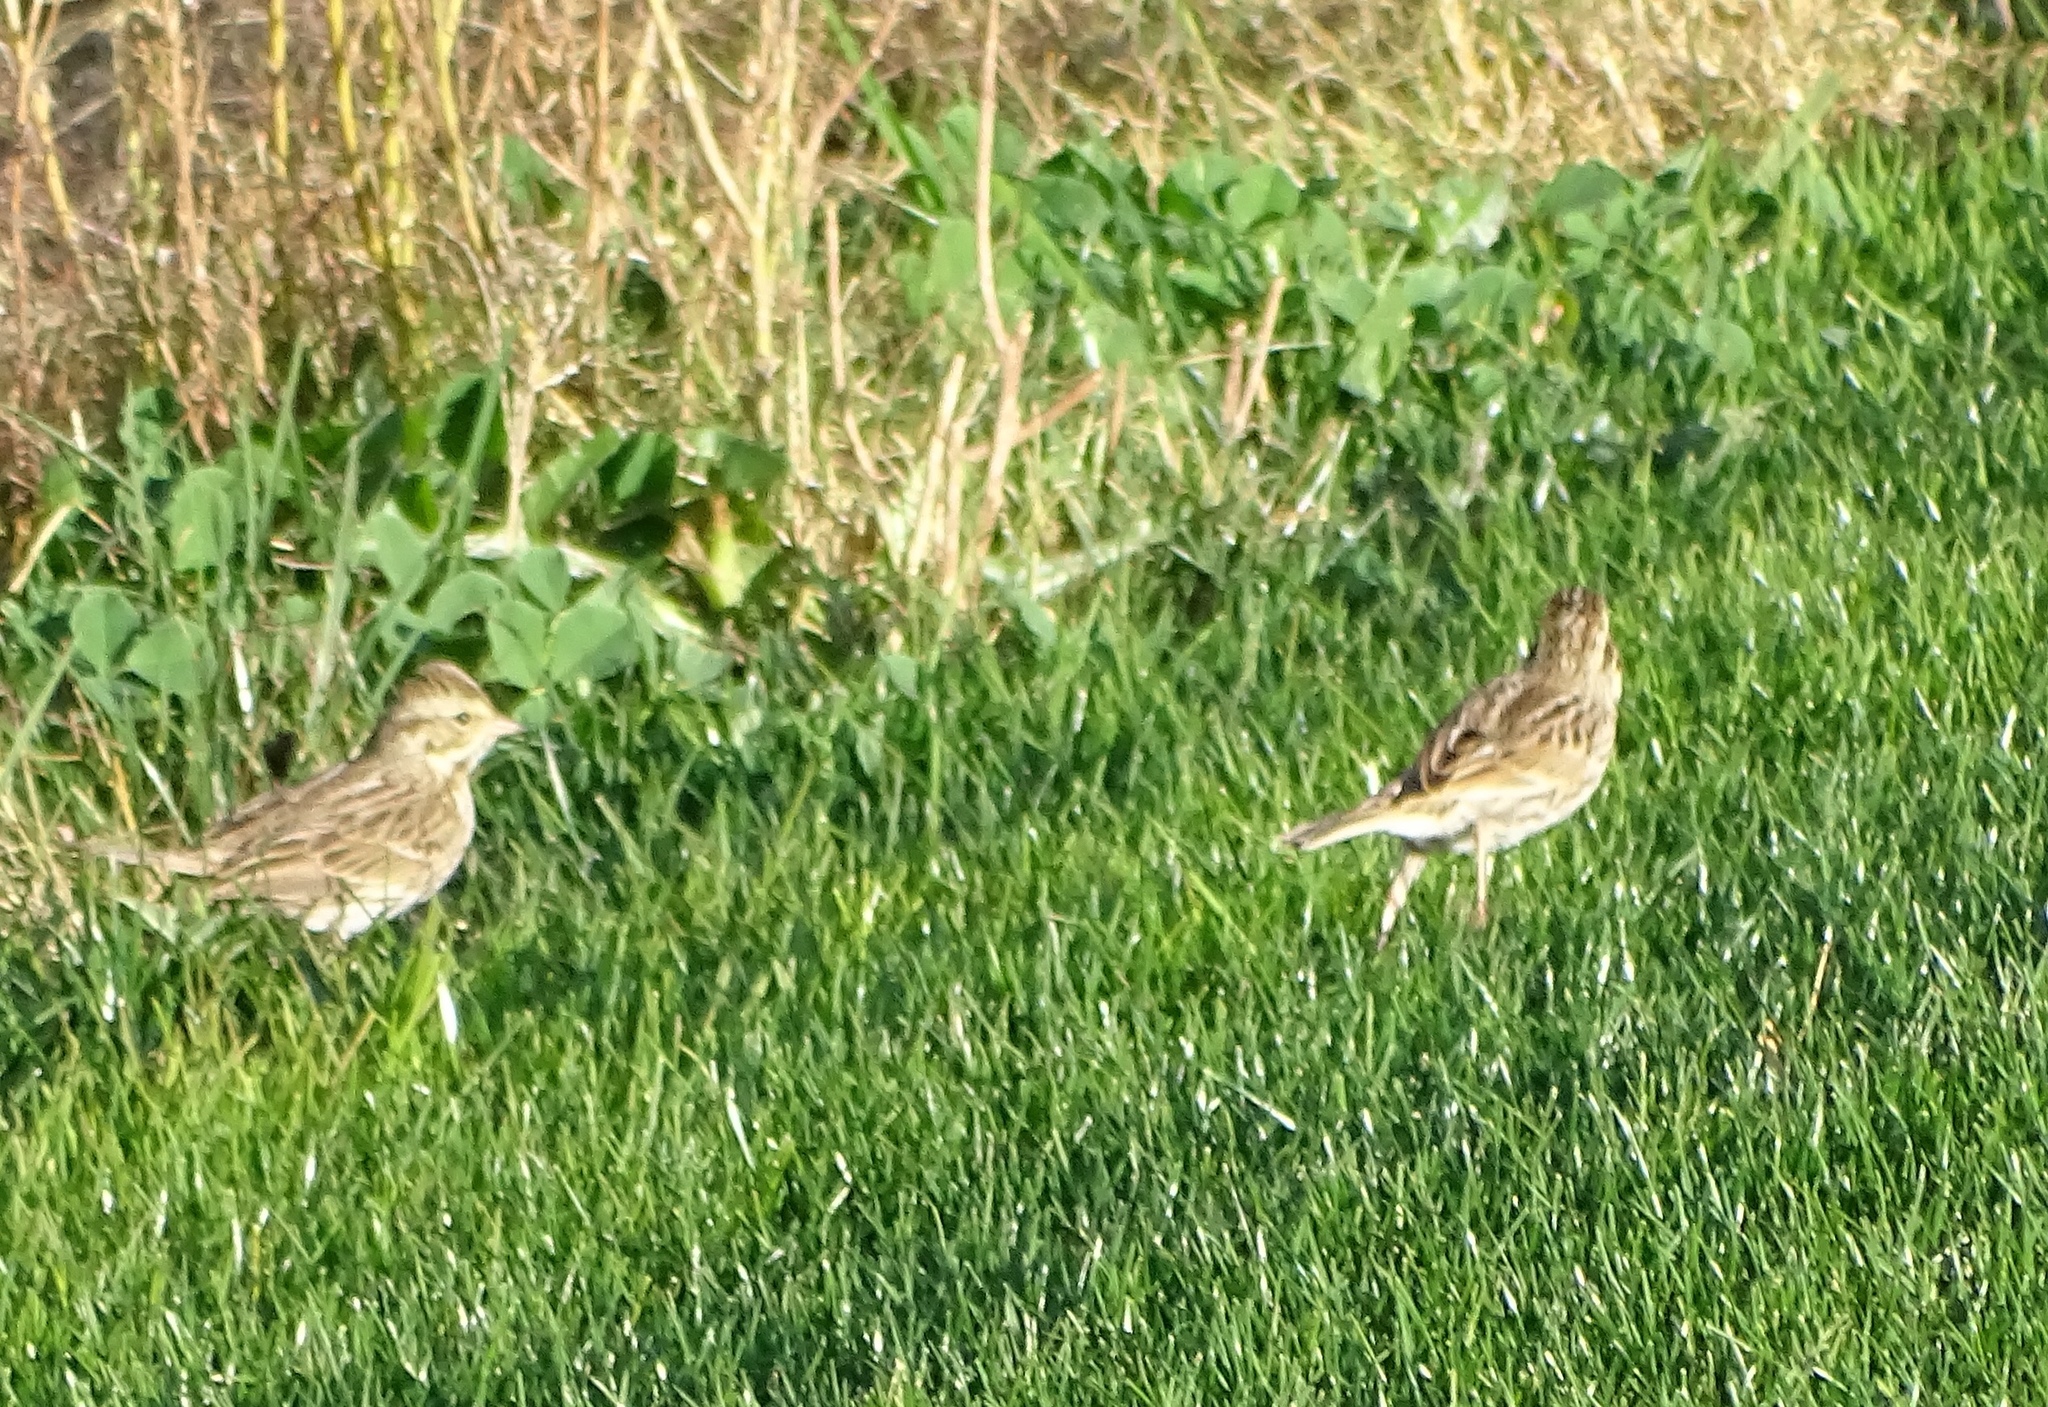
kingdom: Animalia
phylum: Chordata
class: Aves
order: Passeriformes
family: Passerellidae
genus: Passerculus
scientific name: Passerculus sandwichensis
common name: Savannah sparrow
